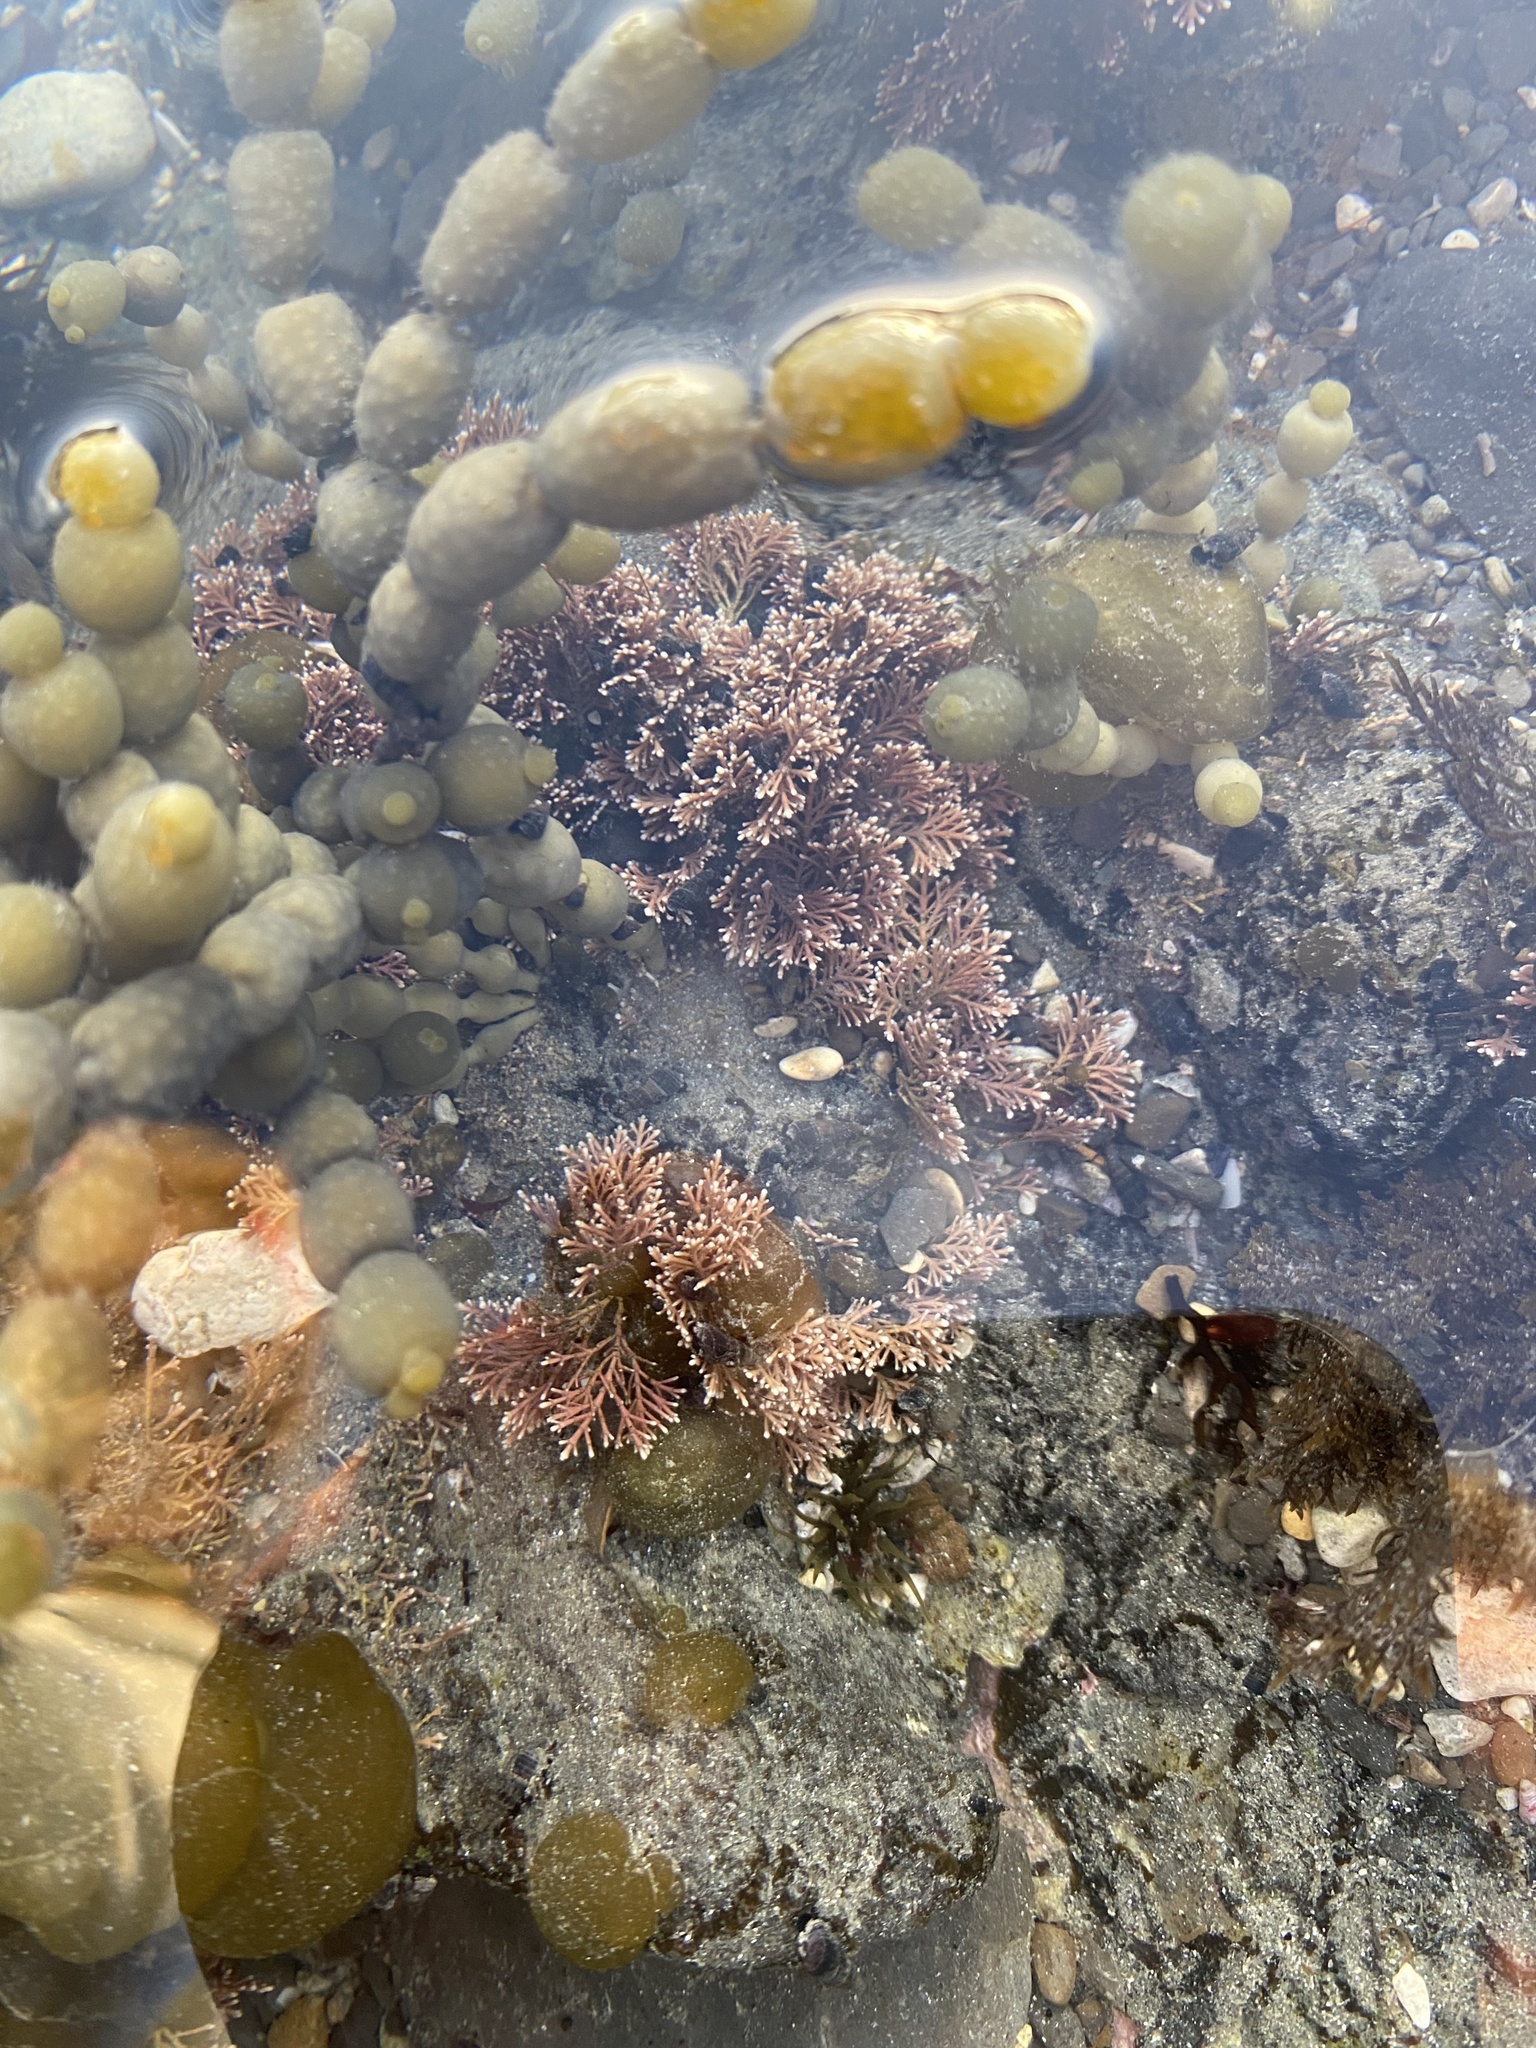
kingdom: Plantae
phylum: Rhodophyta
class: Florideophyceae
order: Corallinales
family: Corallinaceae
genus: Corallina
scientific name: Corallina officinalis
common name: Coral weed
